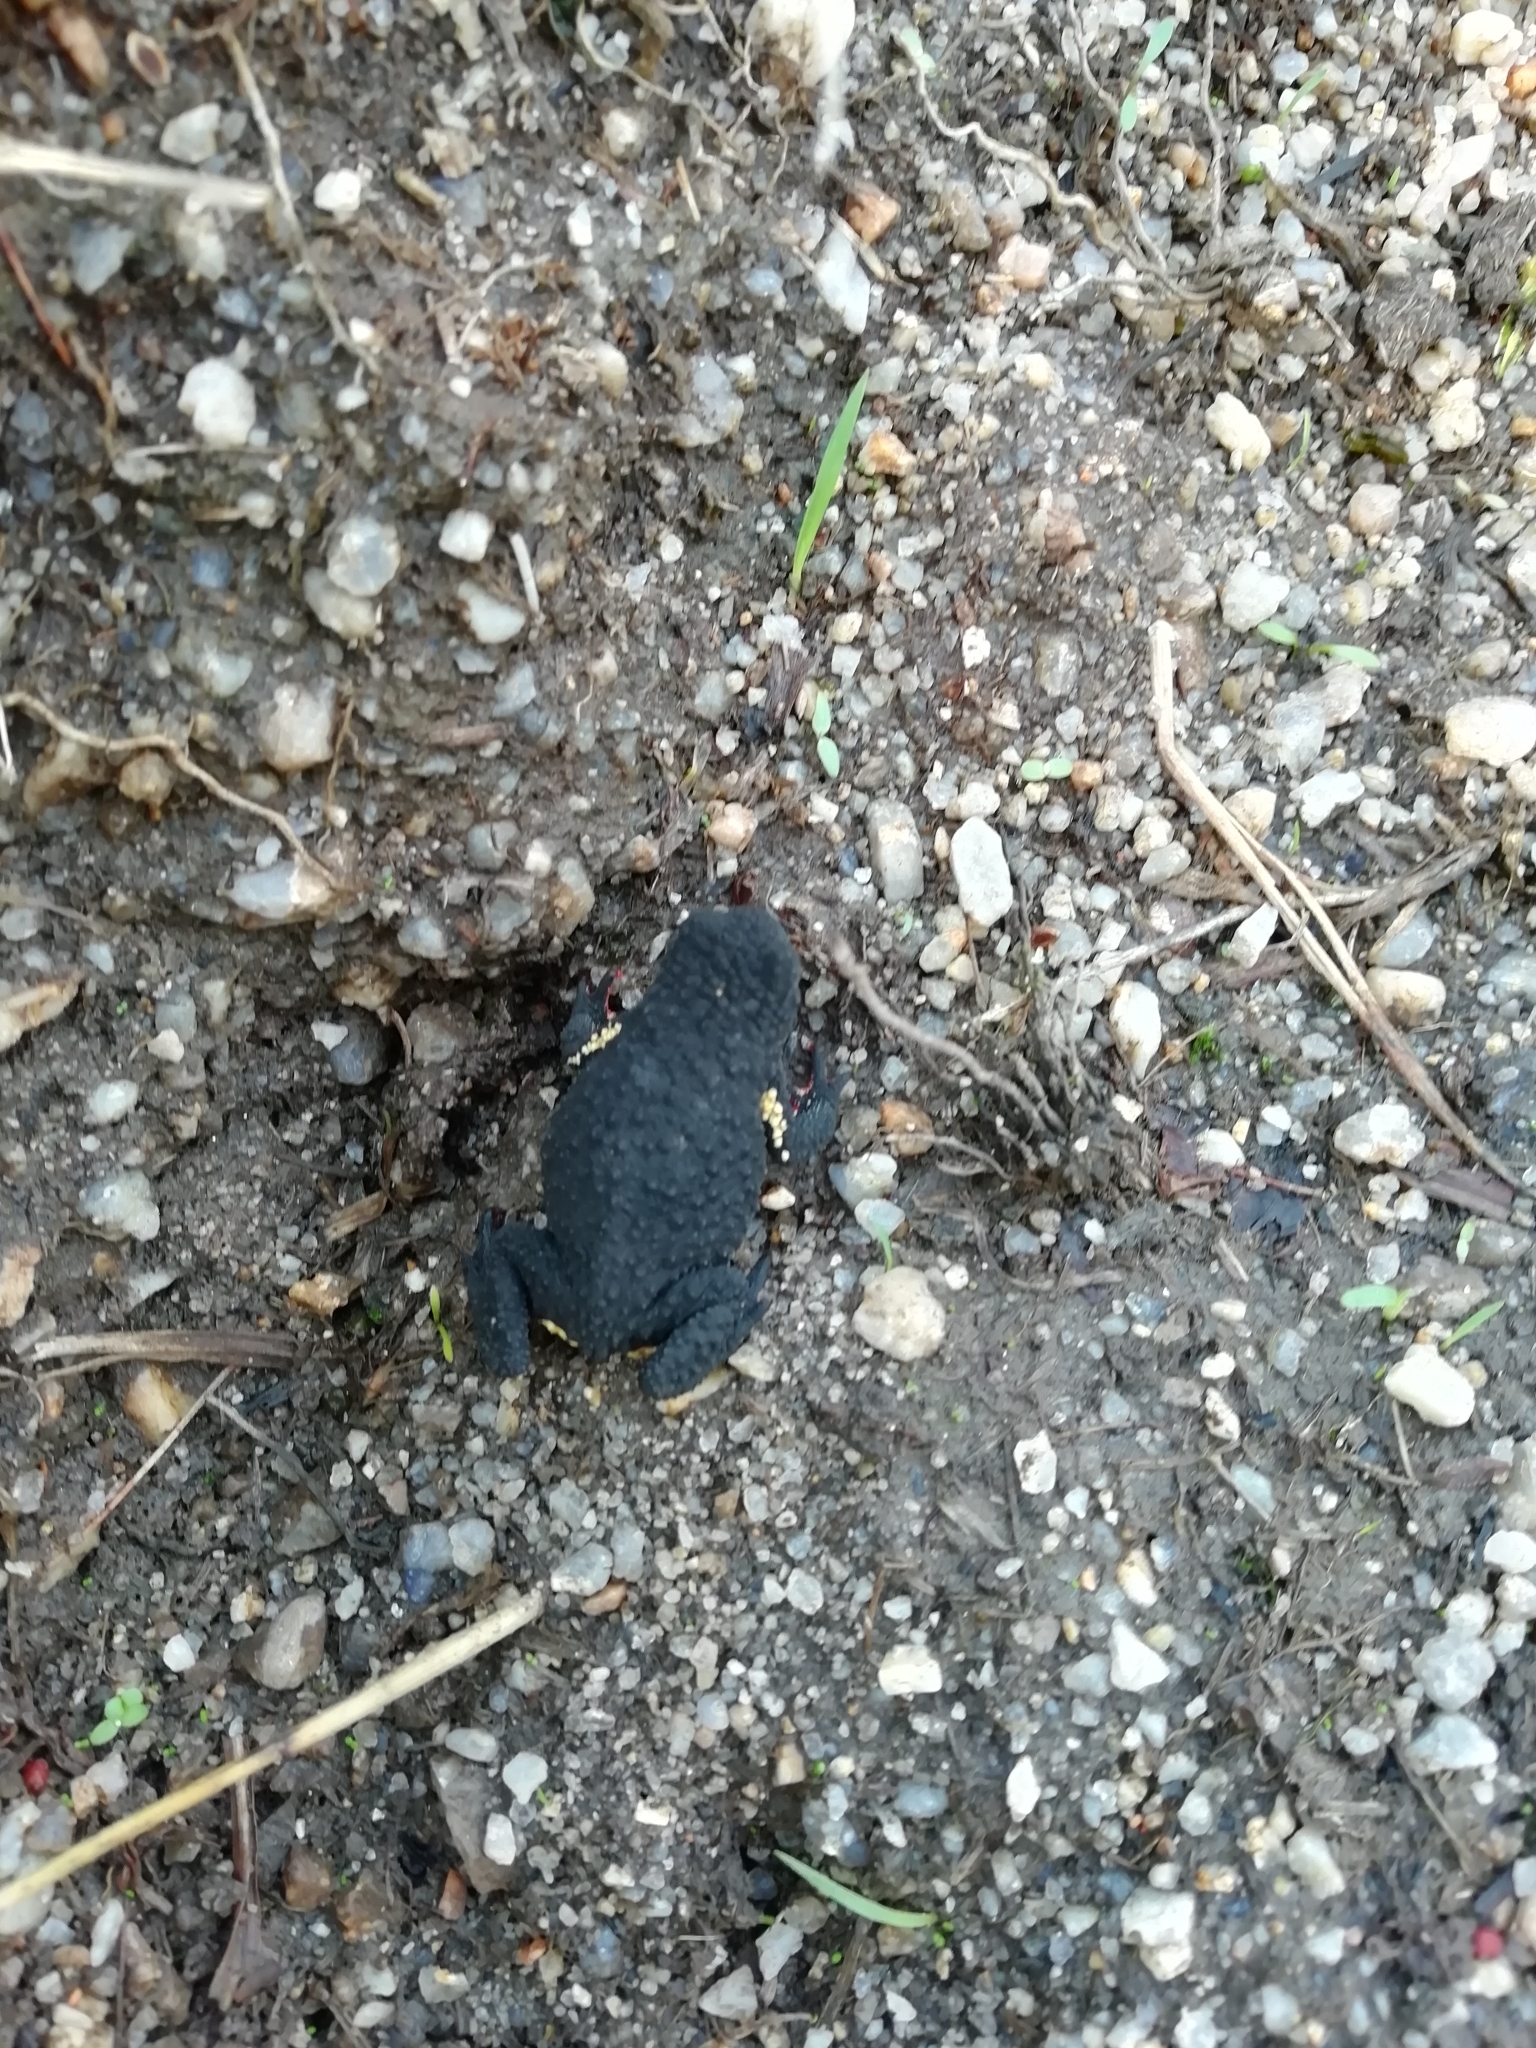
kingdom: Animalia
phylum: Chordata
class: Amphibia
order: Anura
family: Bufonidae
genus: Melanophryniscus
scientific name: Melanophryniscus montevidensis
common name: Montevideo redbelly toad
